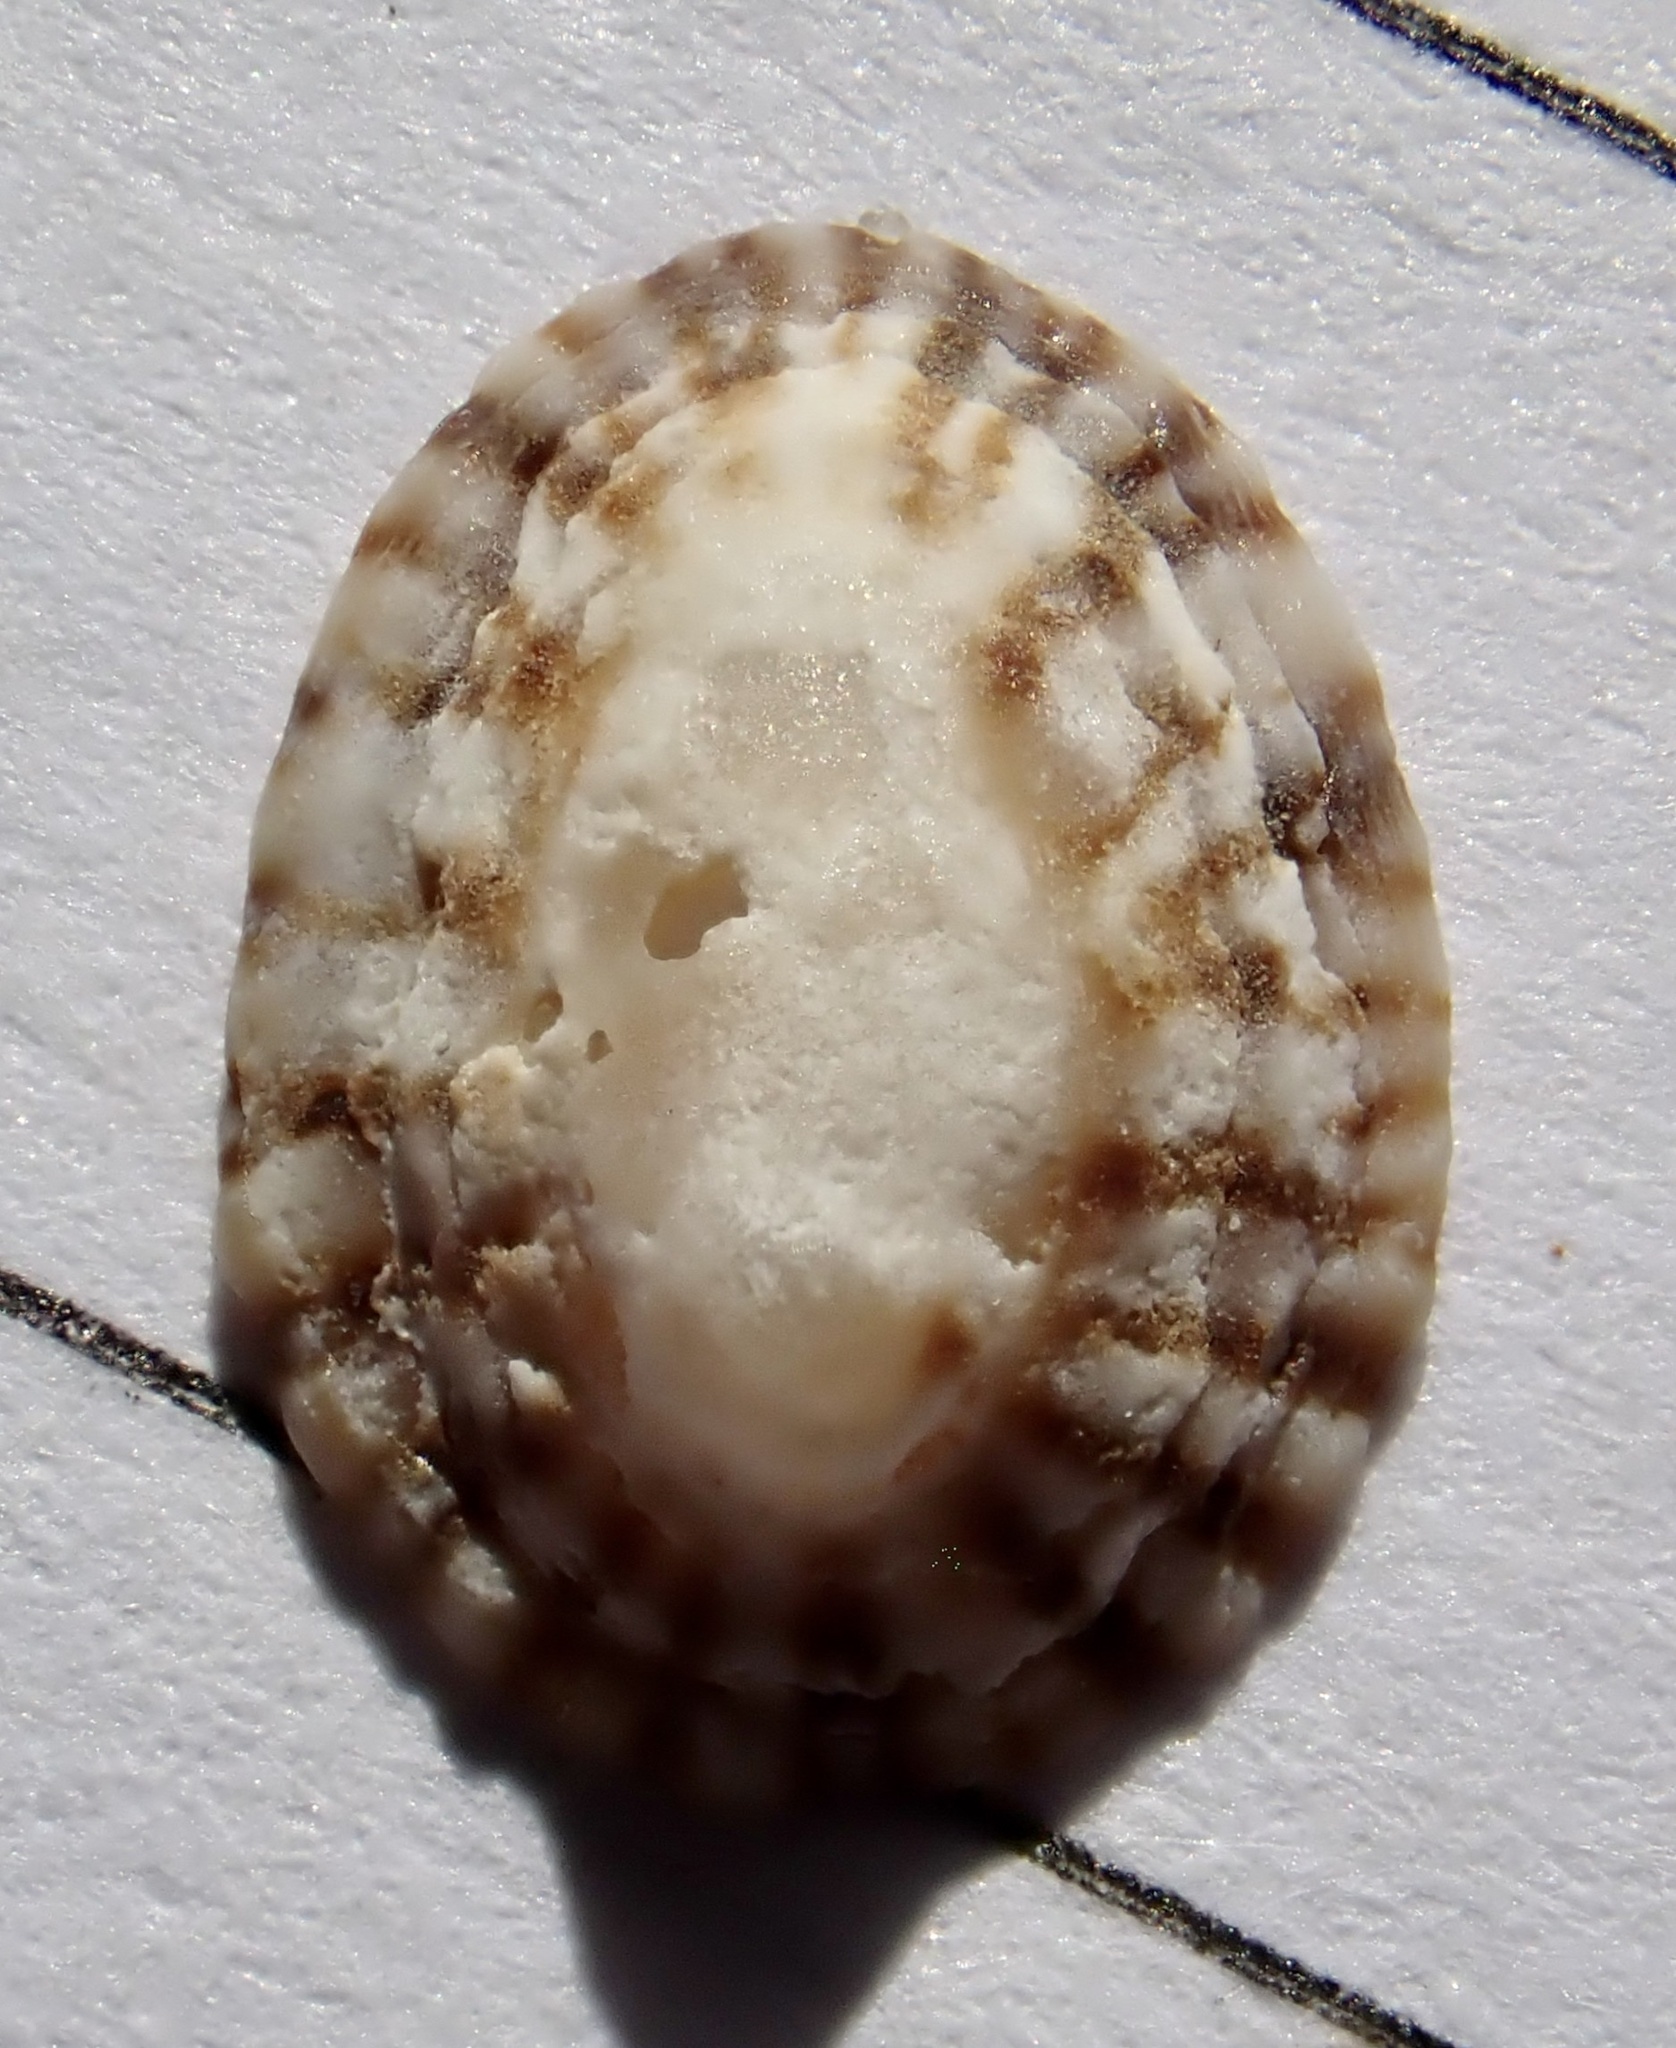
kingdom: Animalia
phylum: Mollusca
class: Gastropoda
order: Siphonariida
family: Siphonariidae
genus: Siphonaria
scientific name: Siphonaria naufragum
